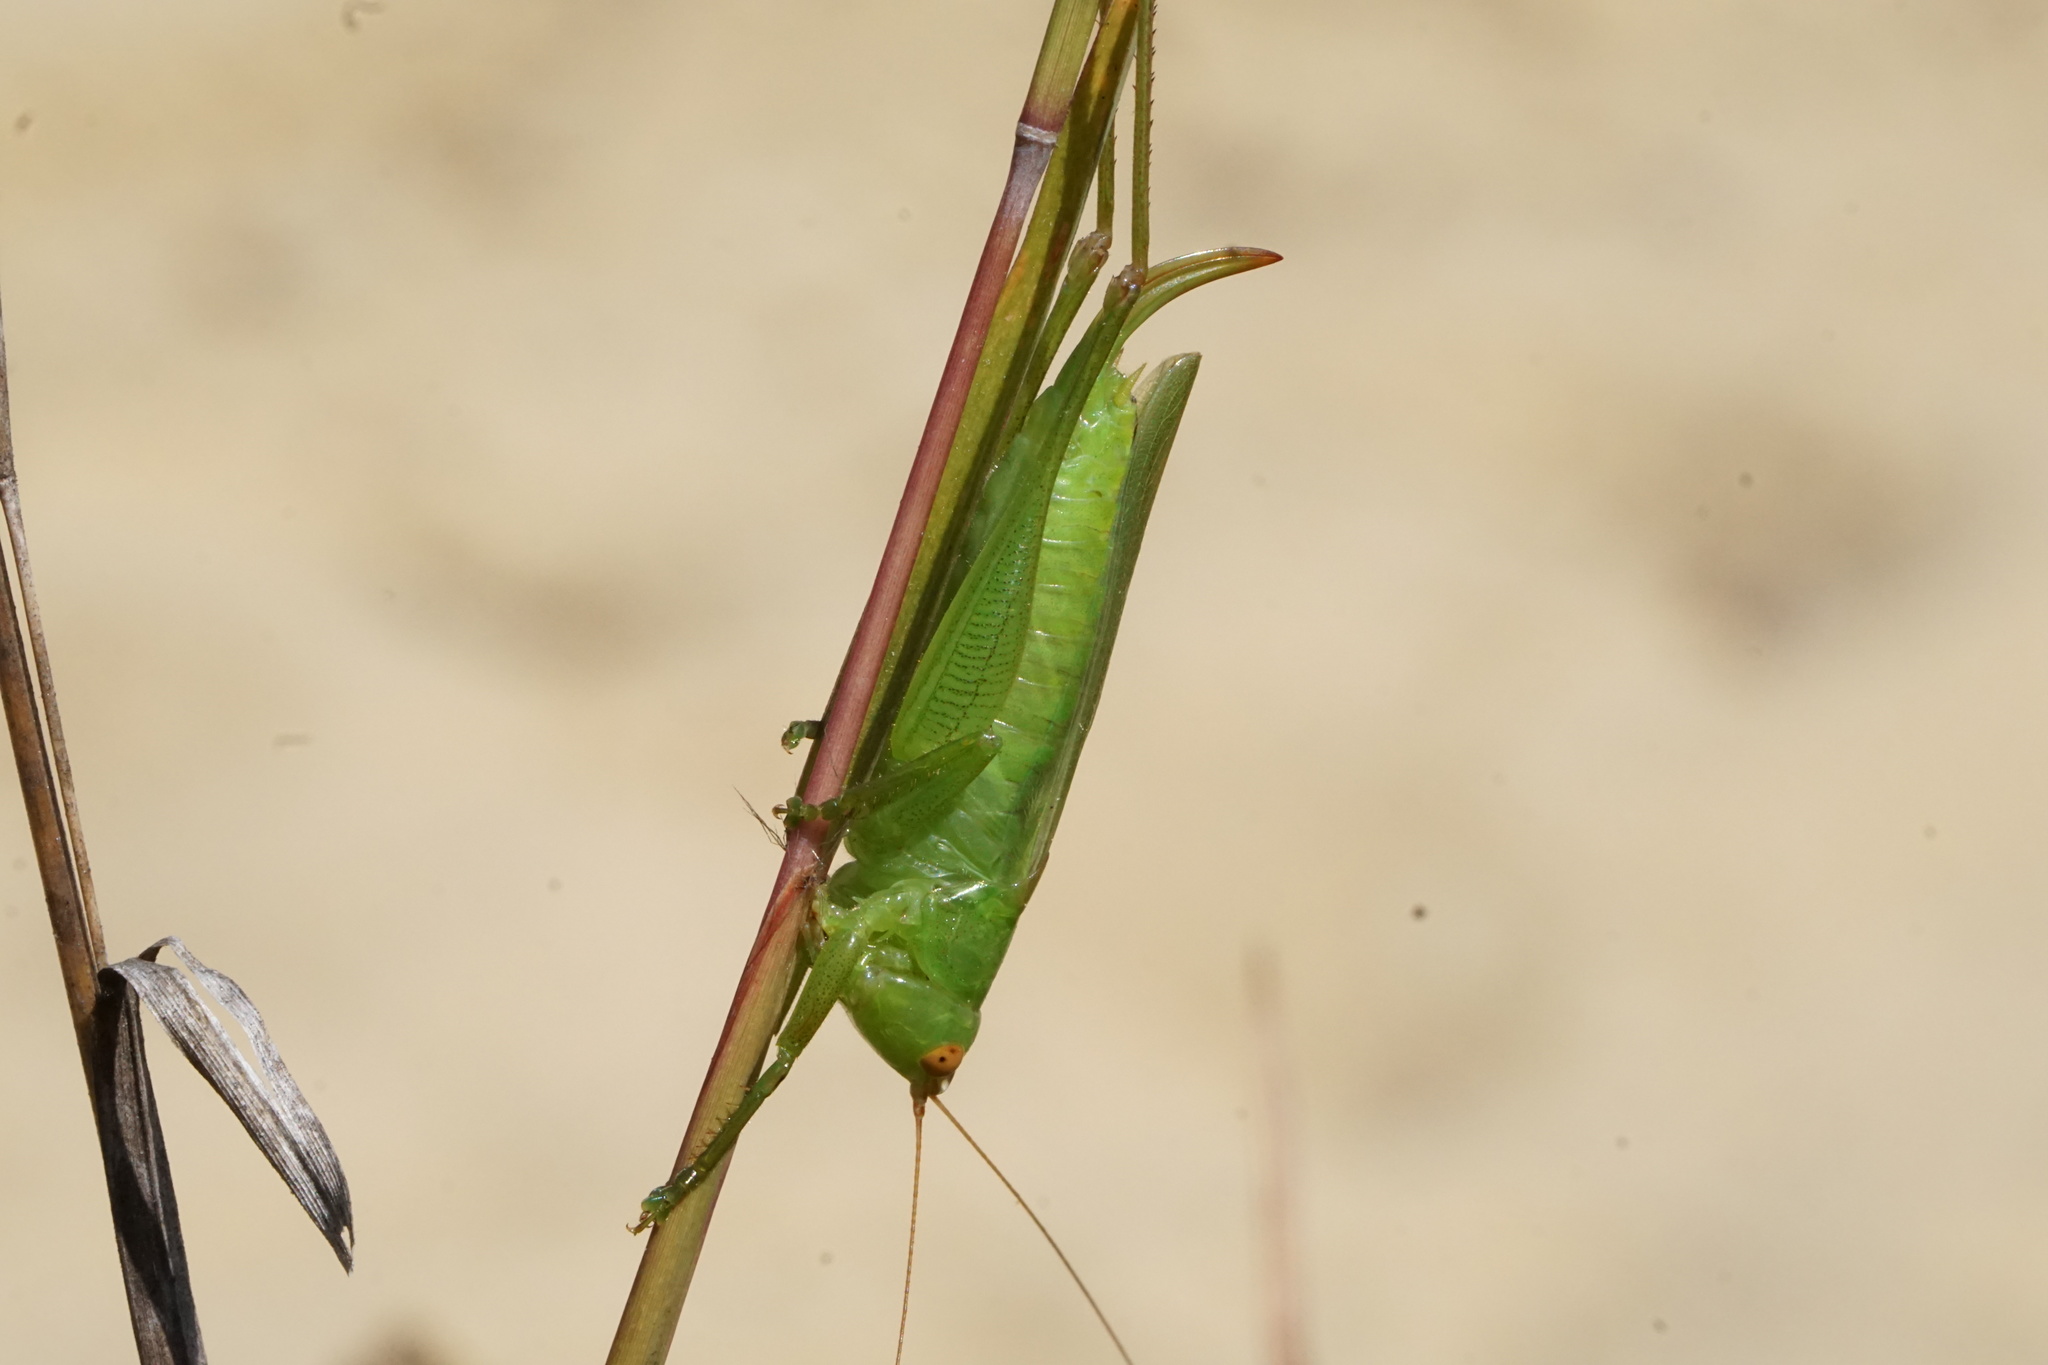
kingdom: Animalia
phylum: Arthropoda
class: Insecta
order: Orthoptera
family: Tettigoniidae
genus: Orchelimum
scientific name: Orchelimum vulgare
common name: Common meadow katydid
